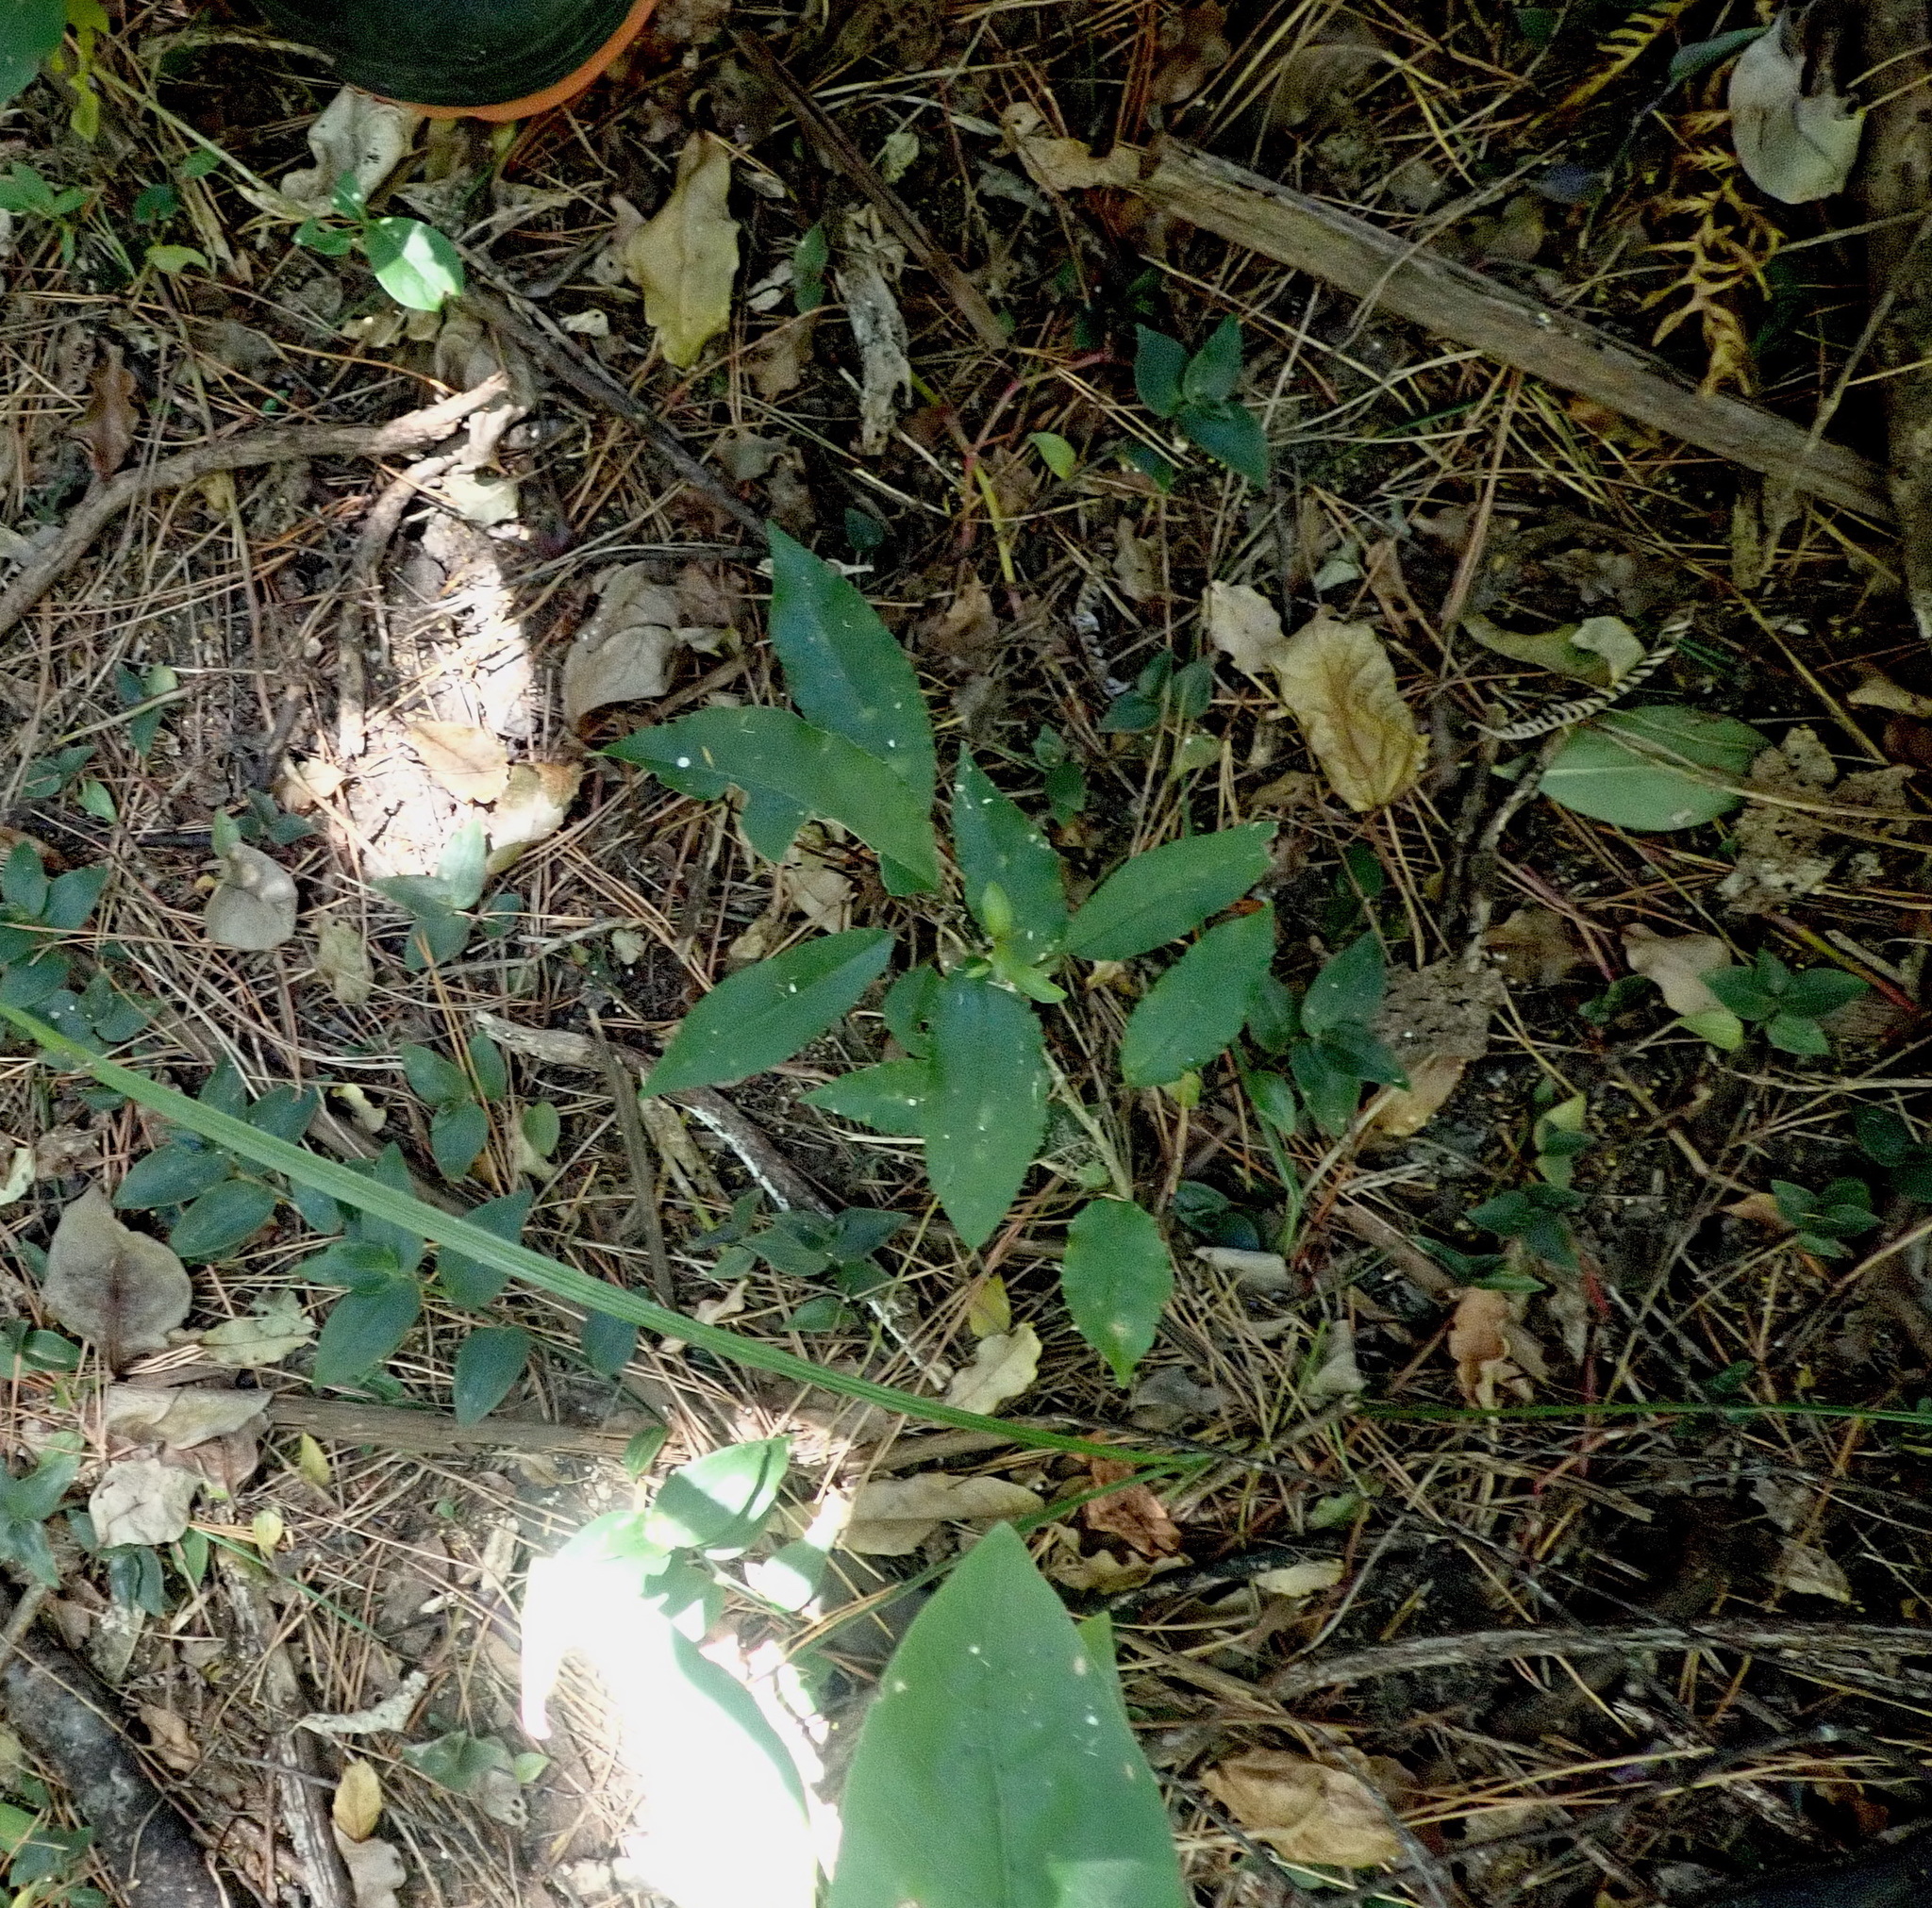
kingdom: Plantae
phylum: Tracheophyta
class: Magnoliopsida
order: Malpighiales
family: Violaceae
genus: Melicytus
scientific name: Melicytus ramiflorus
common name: Mahoe
